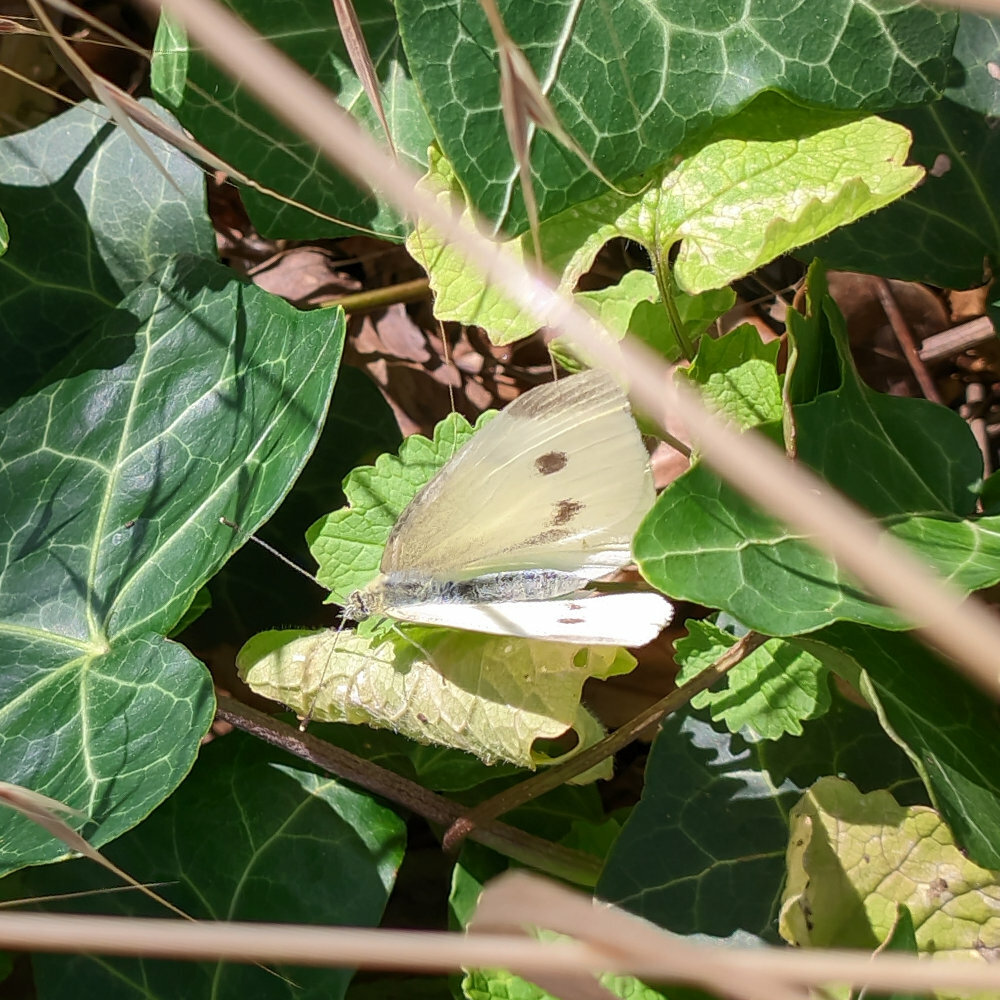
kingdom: Animalia
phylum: Arthropoda
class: Insecta
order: Lepidoptera
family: Pieridae
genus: Pieris
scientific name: Pieris rapae
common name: Small white
